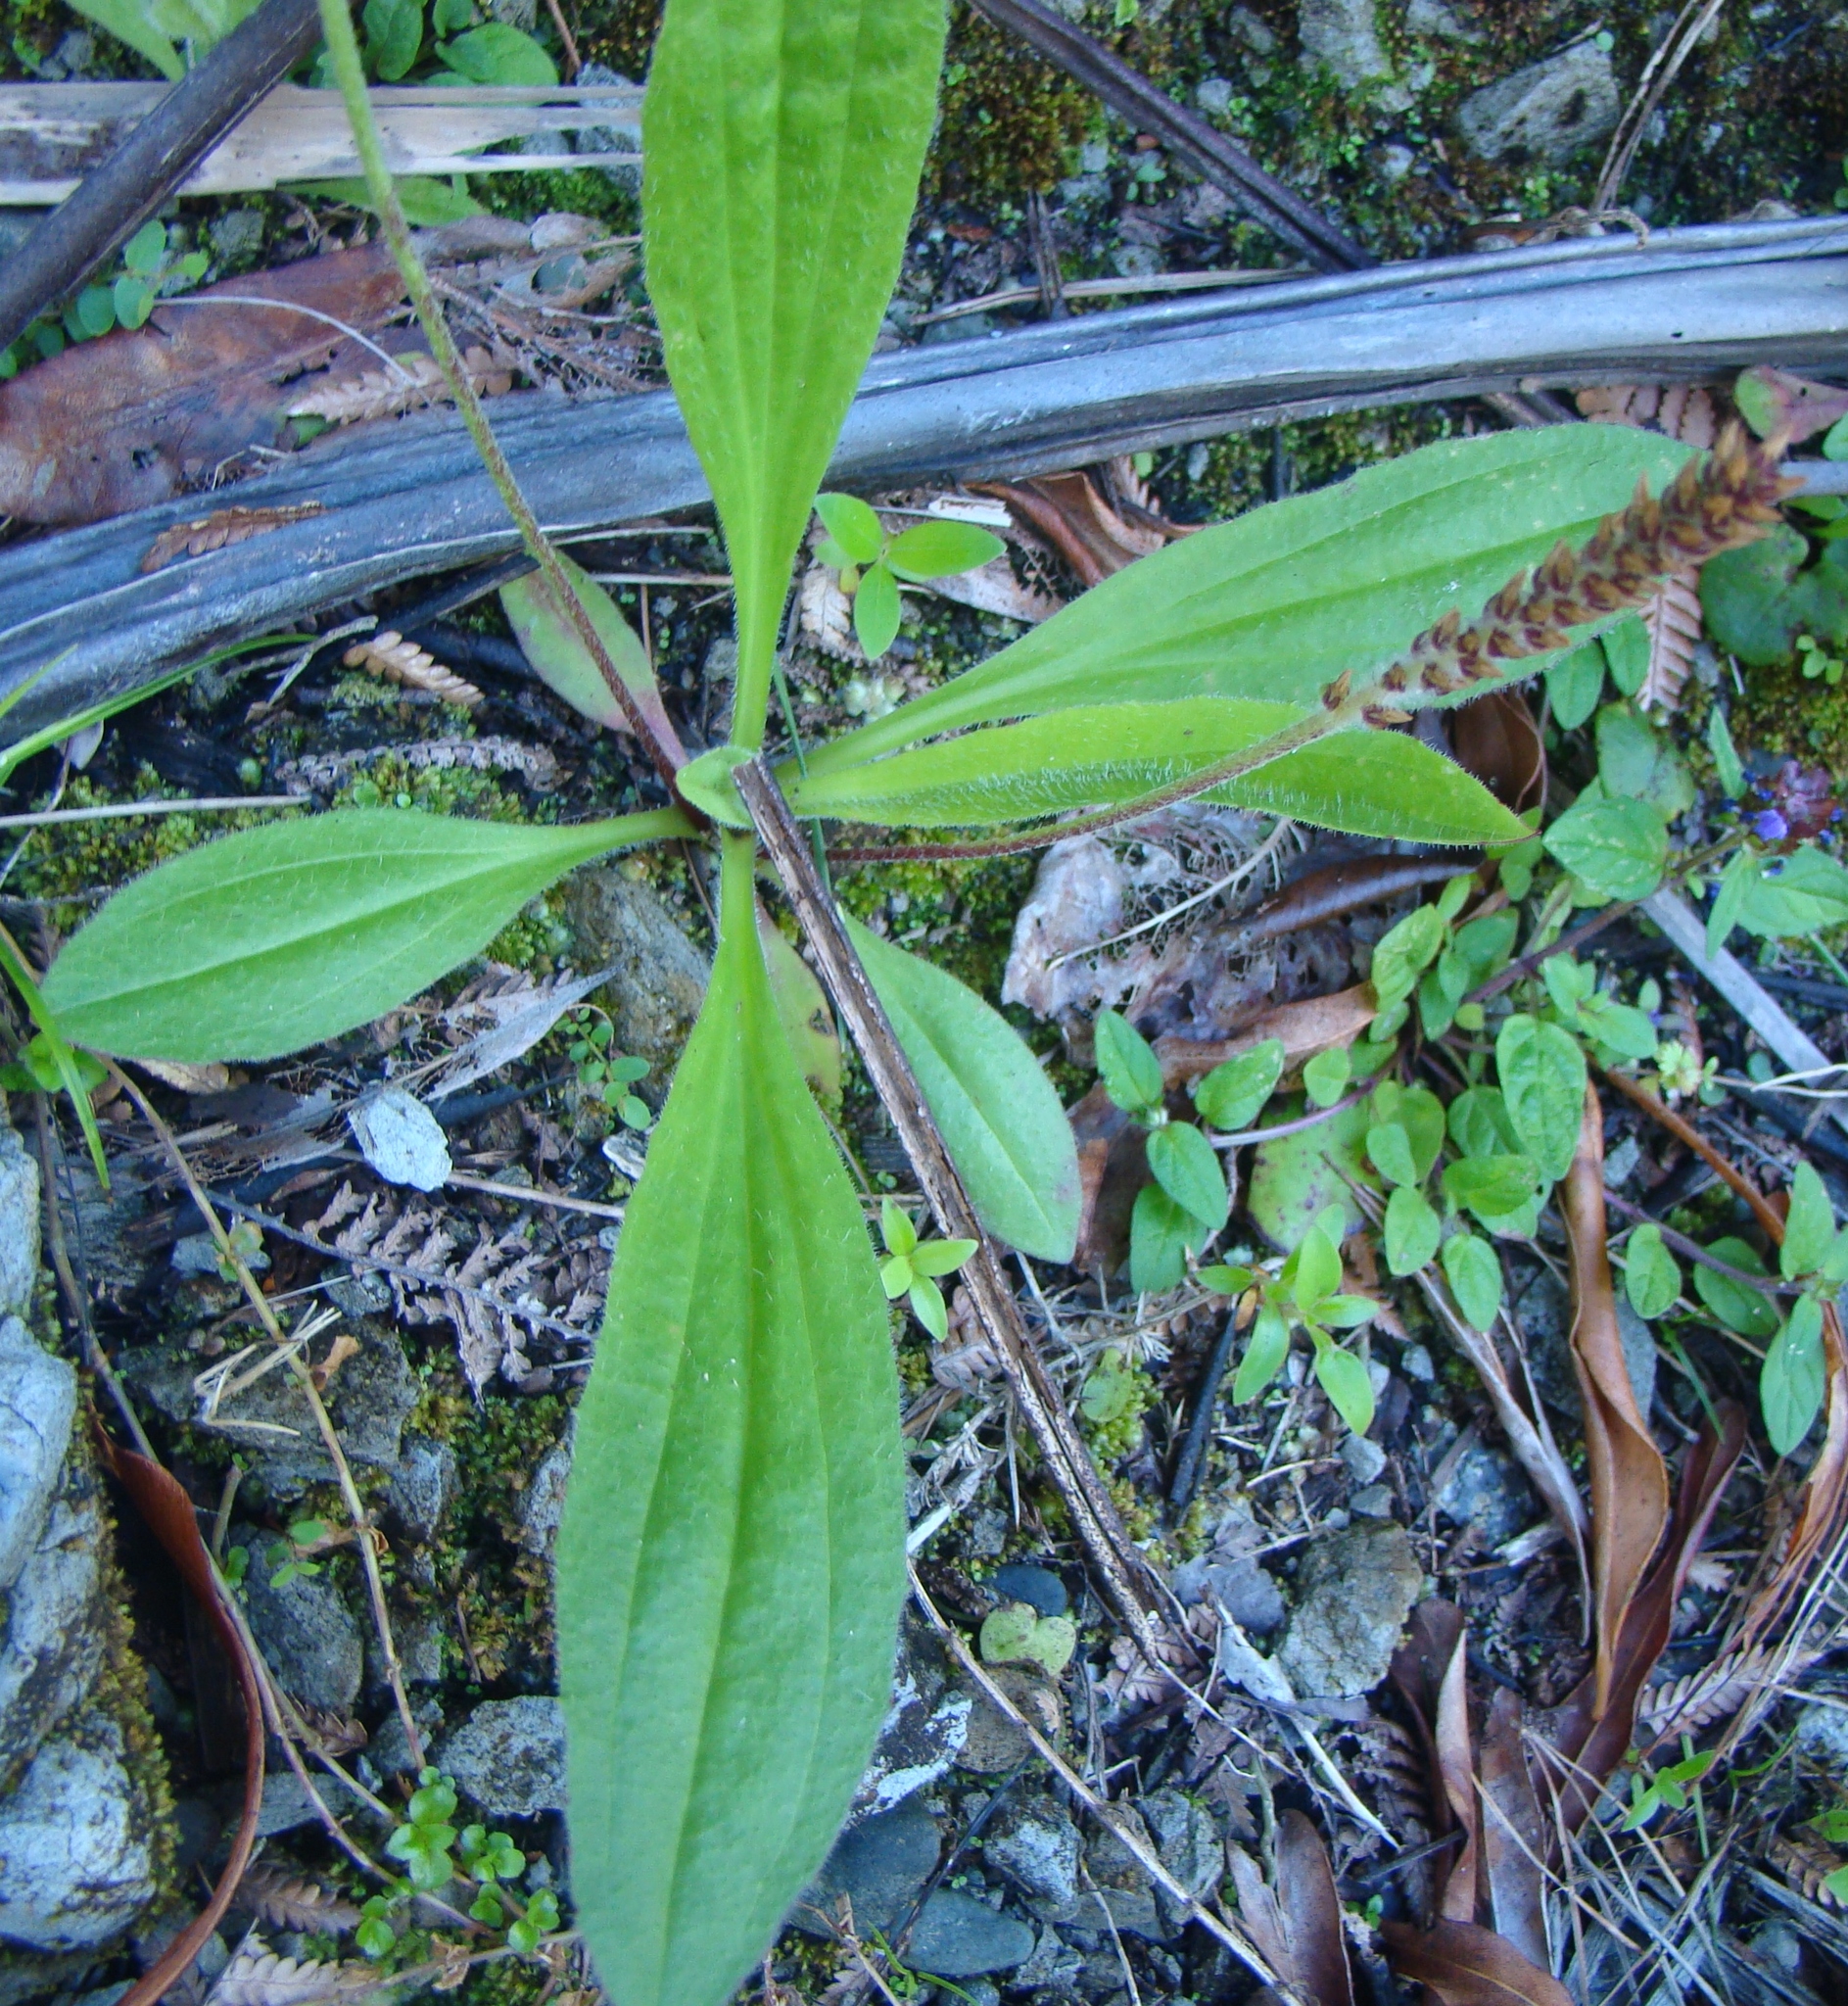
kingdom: Plantae
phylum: Tracheophyta
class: Magnoliopsida
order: Lamiales
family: Plantaginaceae
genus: Plantago
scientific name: Plantago australis
